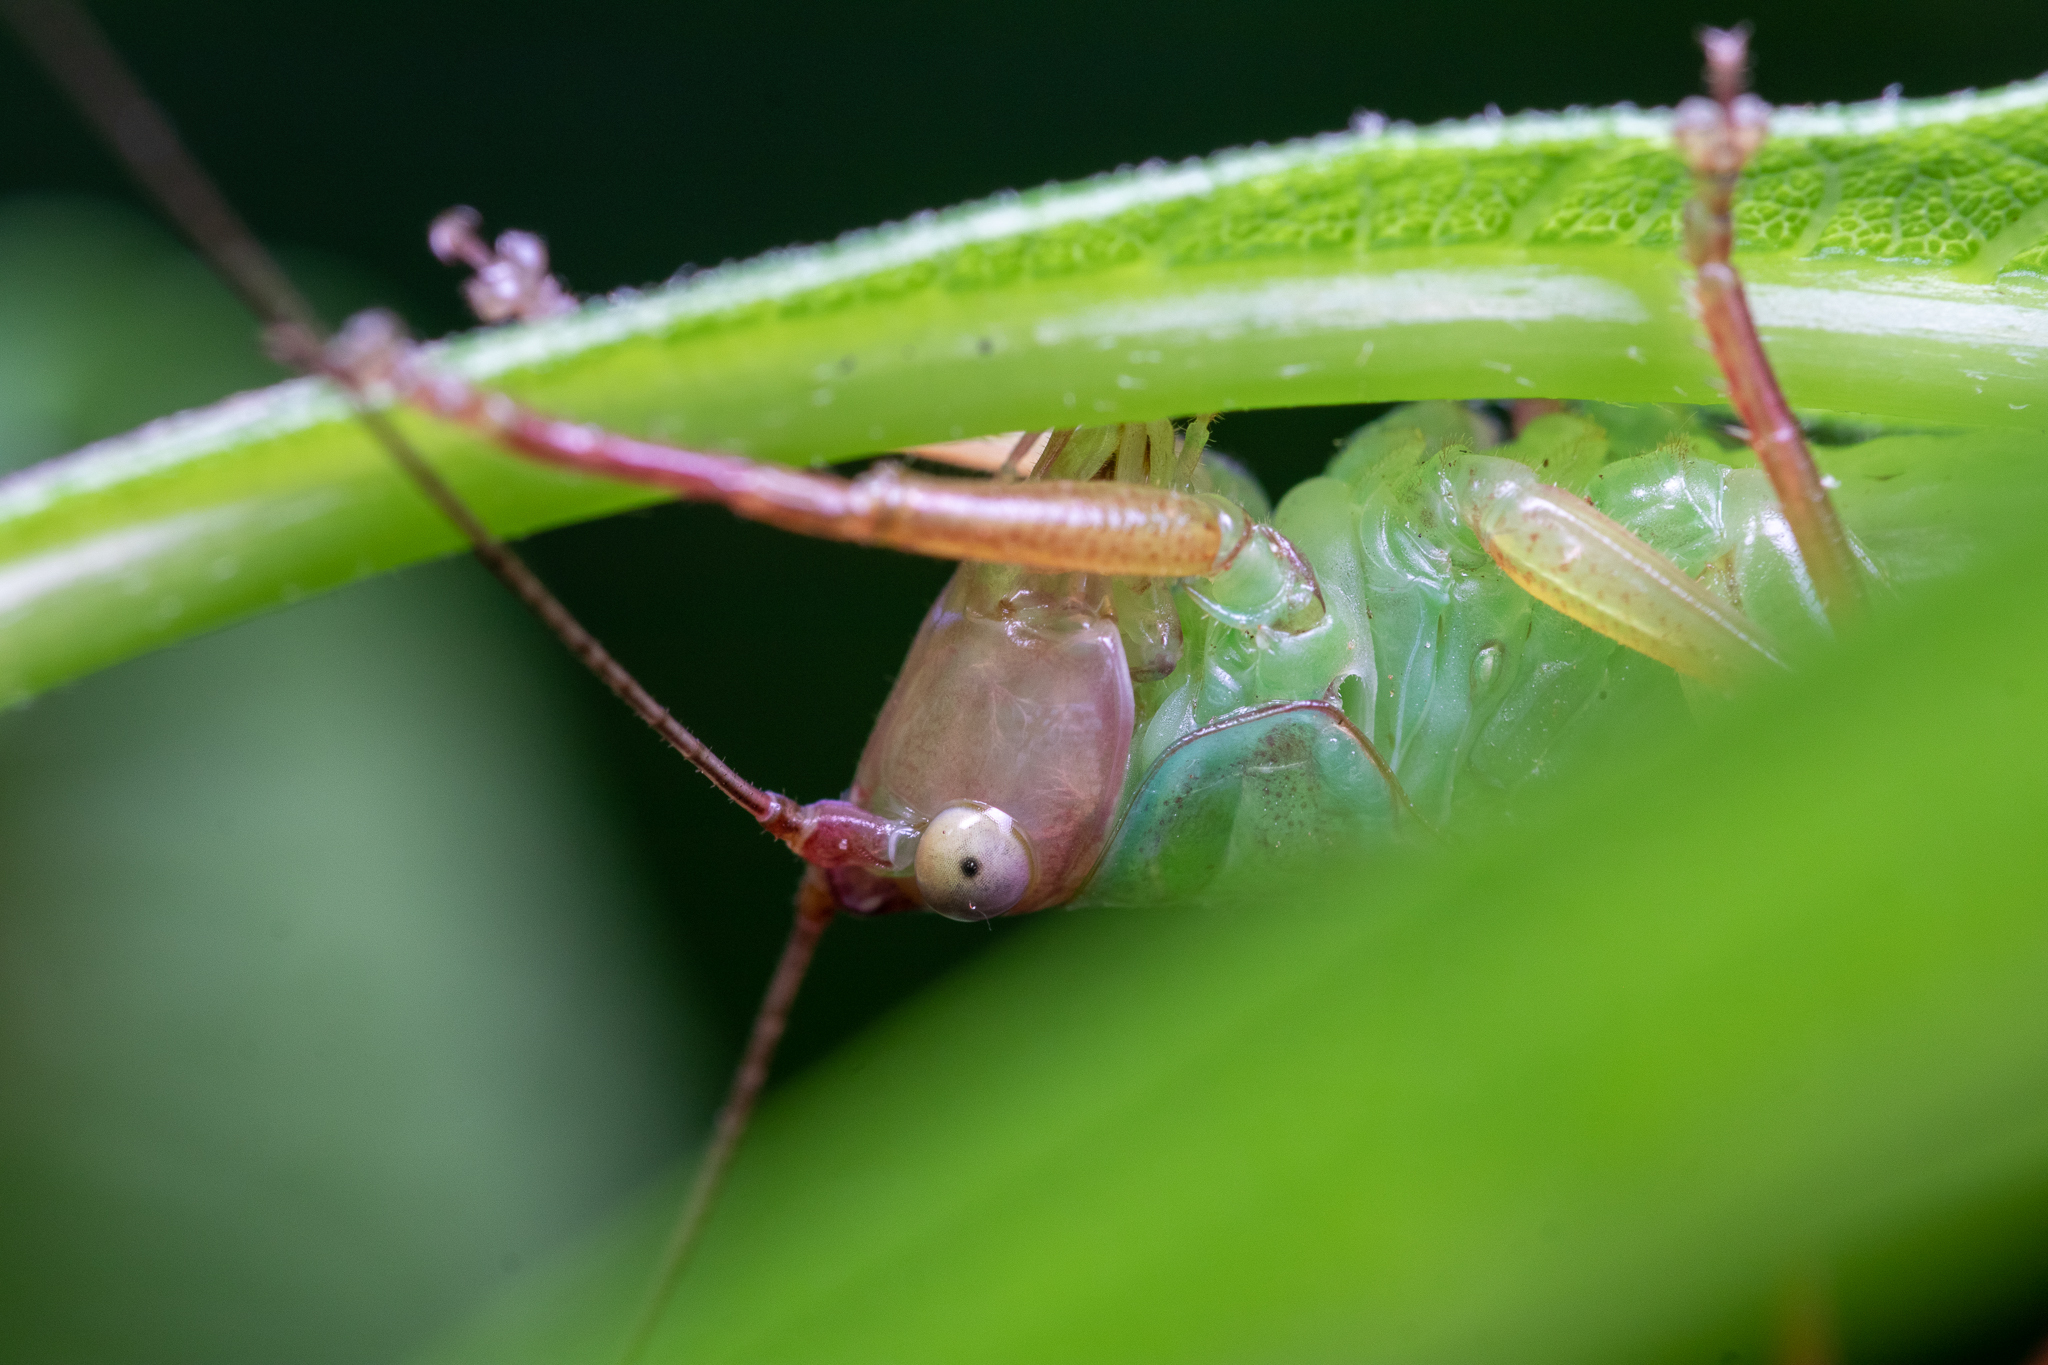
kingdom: Animalia
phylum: Arthropoda
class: Insecta
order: Orthoptera
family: Tettigoniidae
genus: Orchelimum
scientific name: Orchelimum pulchellum
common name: Handsome meadow katydid
